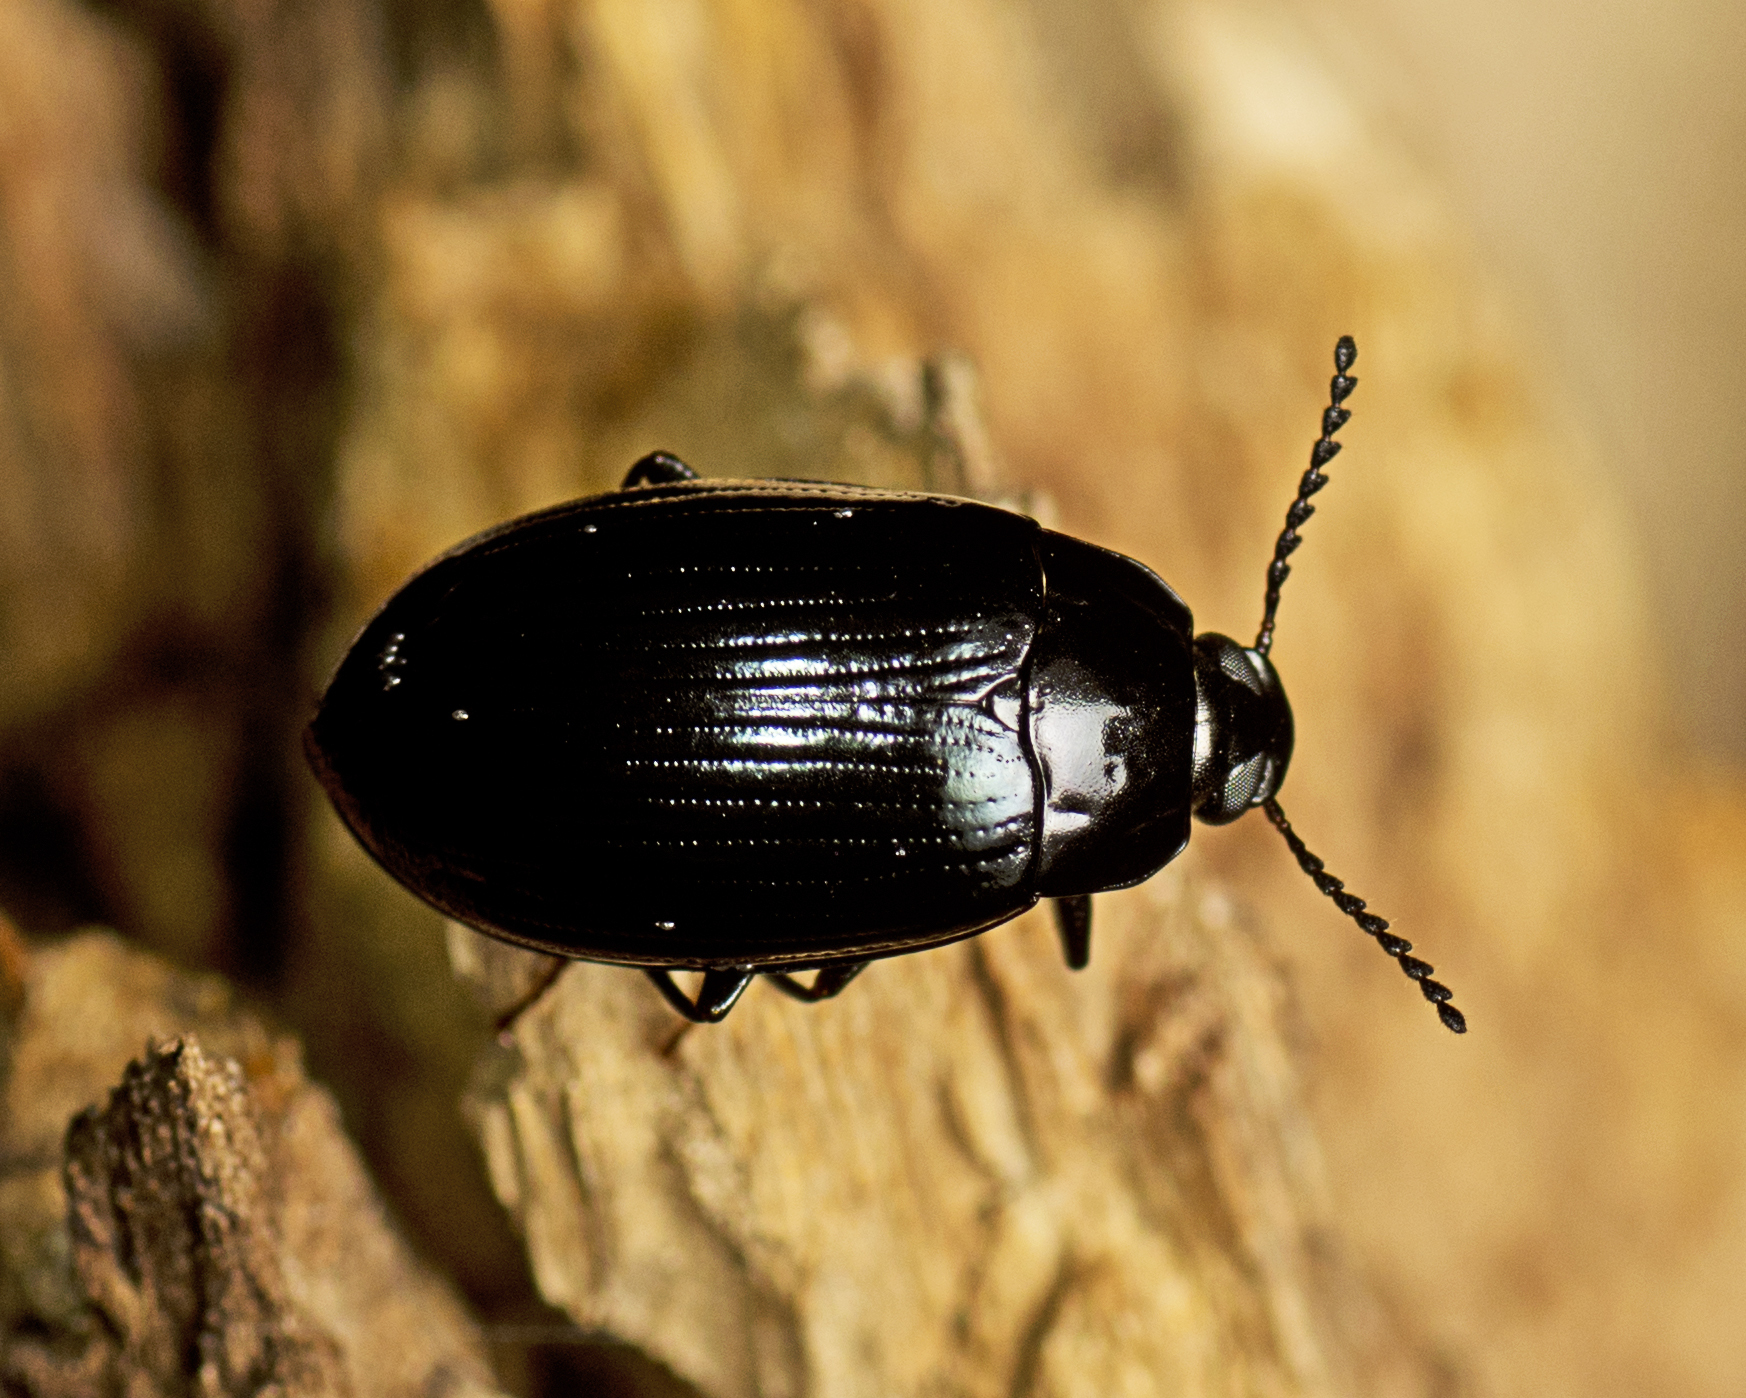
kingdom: Animalia
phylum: Arthropoda
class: Insecta
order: Coleoptera
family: Tenebrionidae
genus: Ceropria
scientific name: Ceropria
